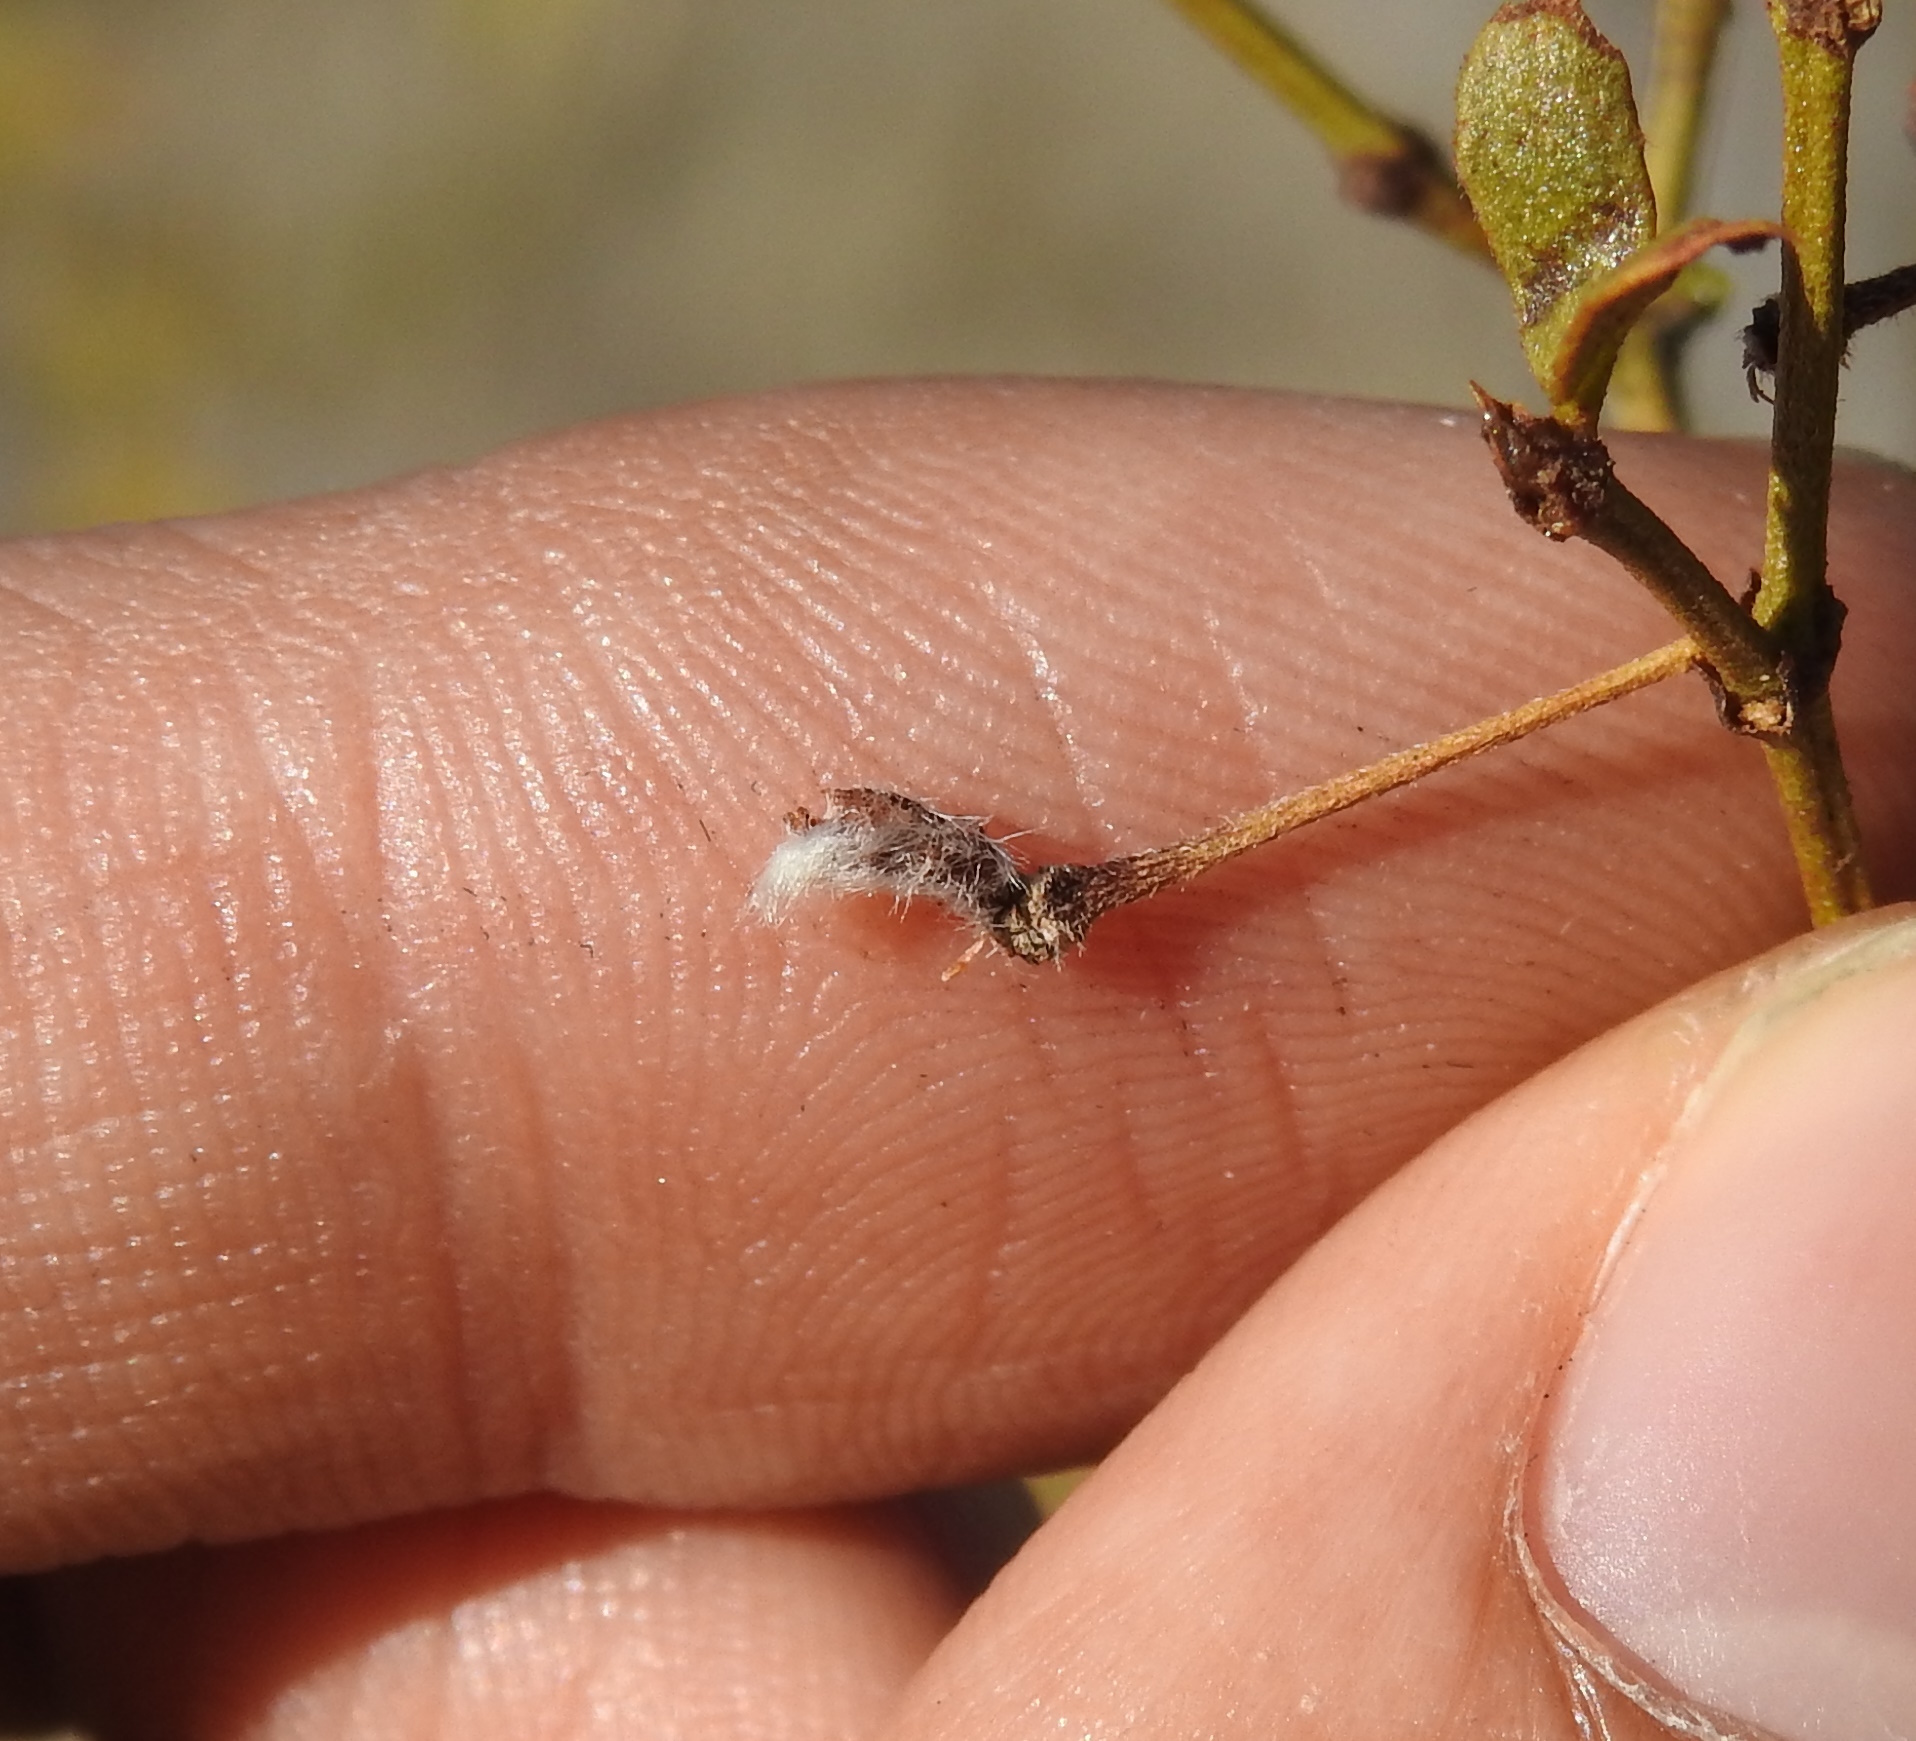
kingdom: Animalia
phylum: Arthropoda
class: Insecta
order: Diptera
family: Cecidomyiidae
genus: Asphondylia
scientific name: Asphondylia florea
